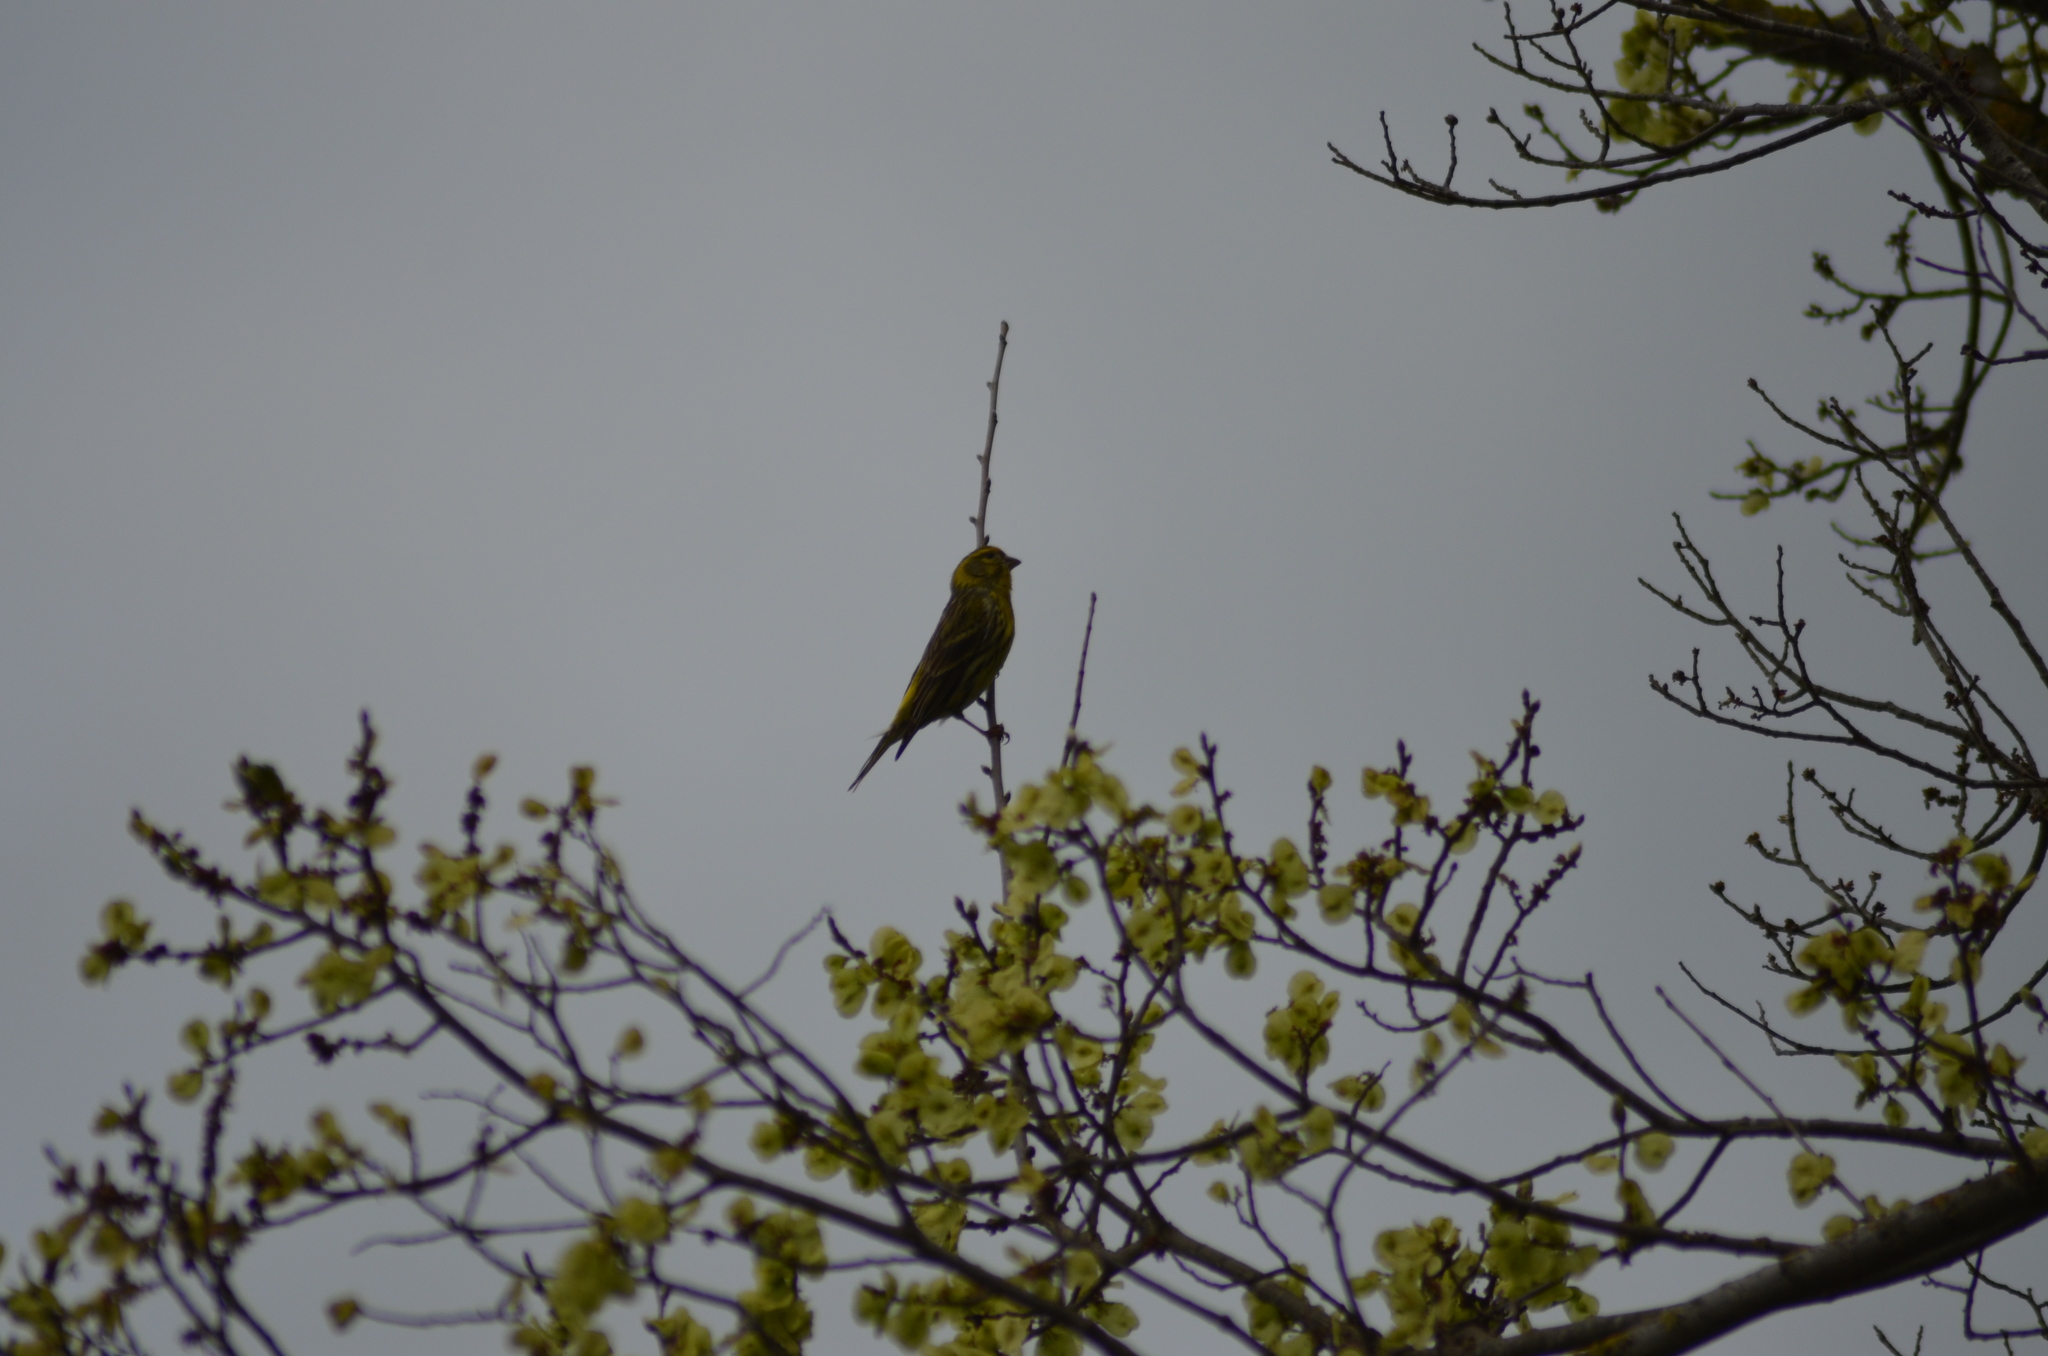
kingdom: Animalia
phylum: Chordata
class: Aves
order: Passeriformes
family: Fringillidae
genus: Serinus
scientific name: Serinus serinus
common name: European serin
